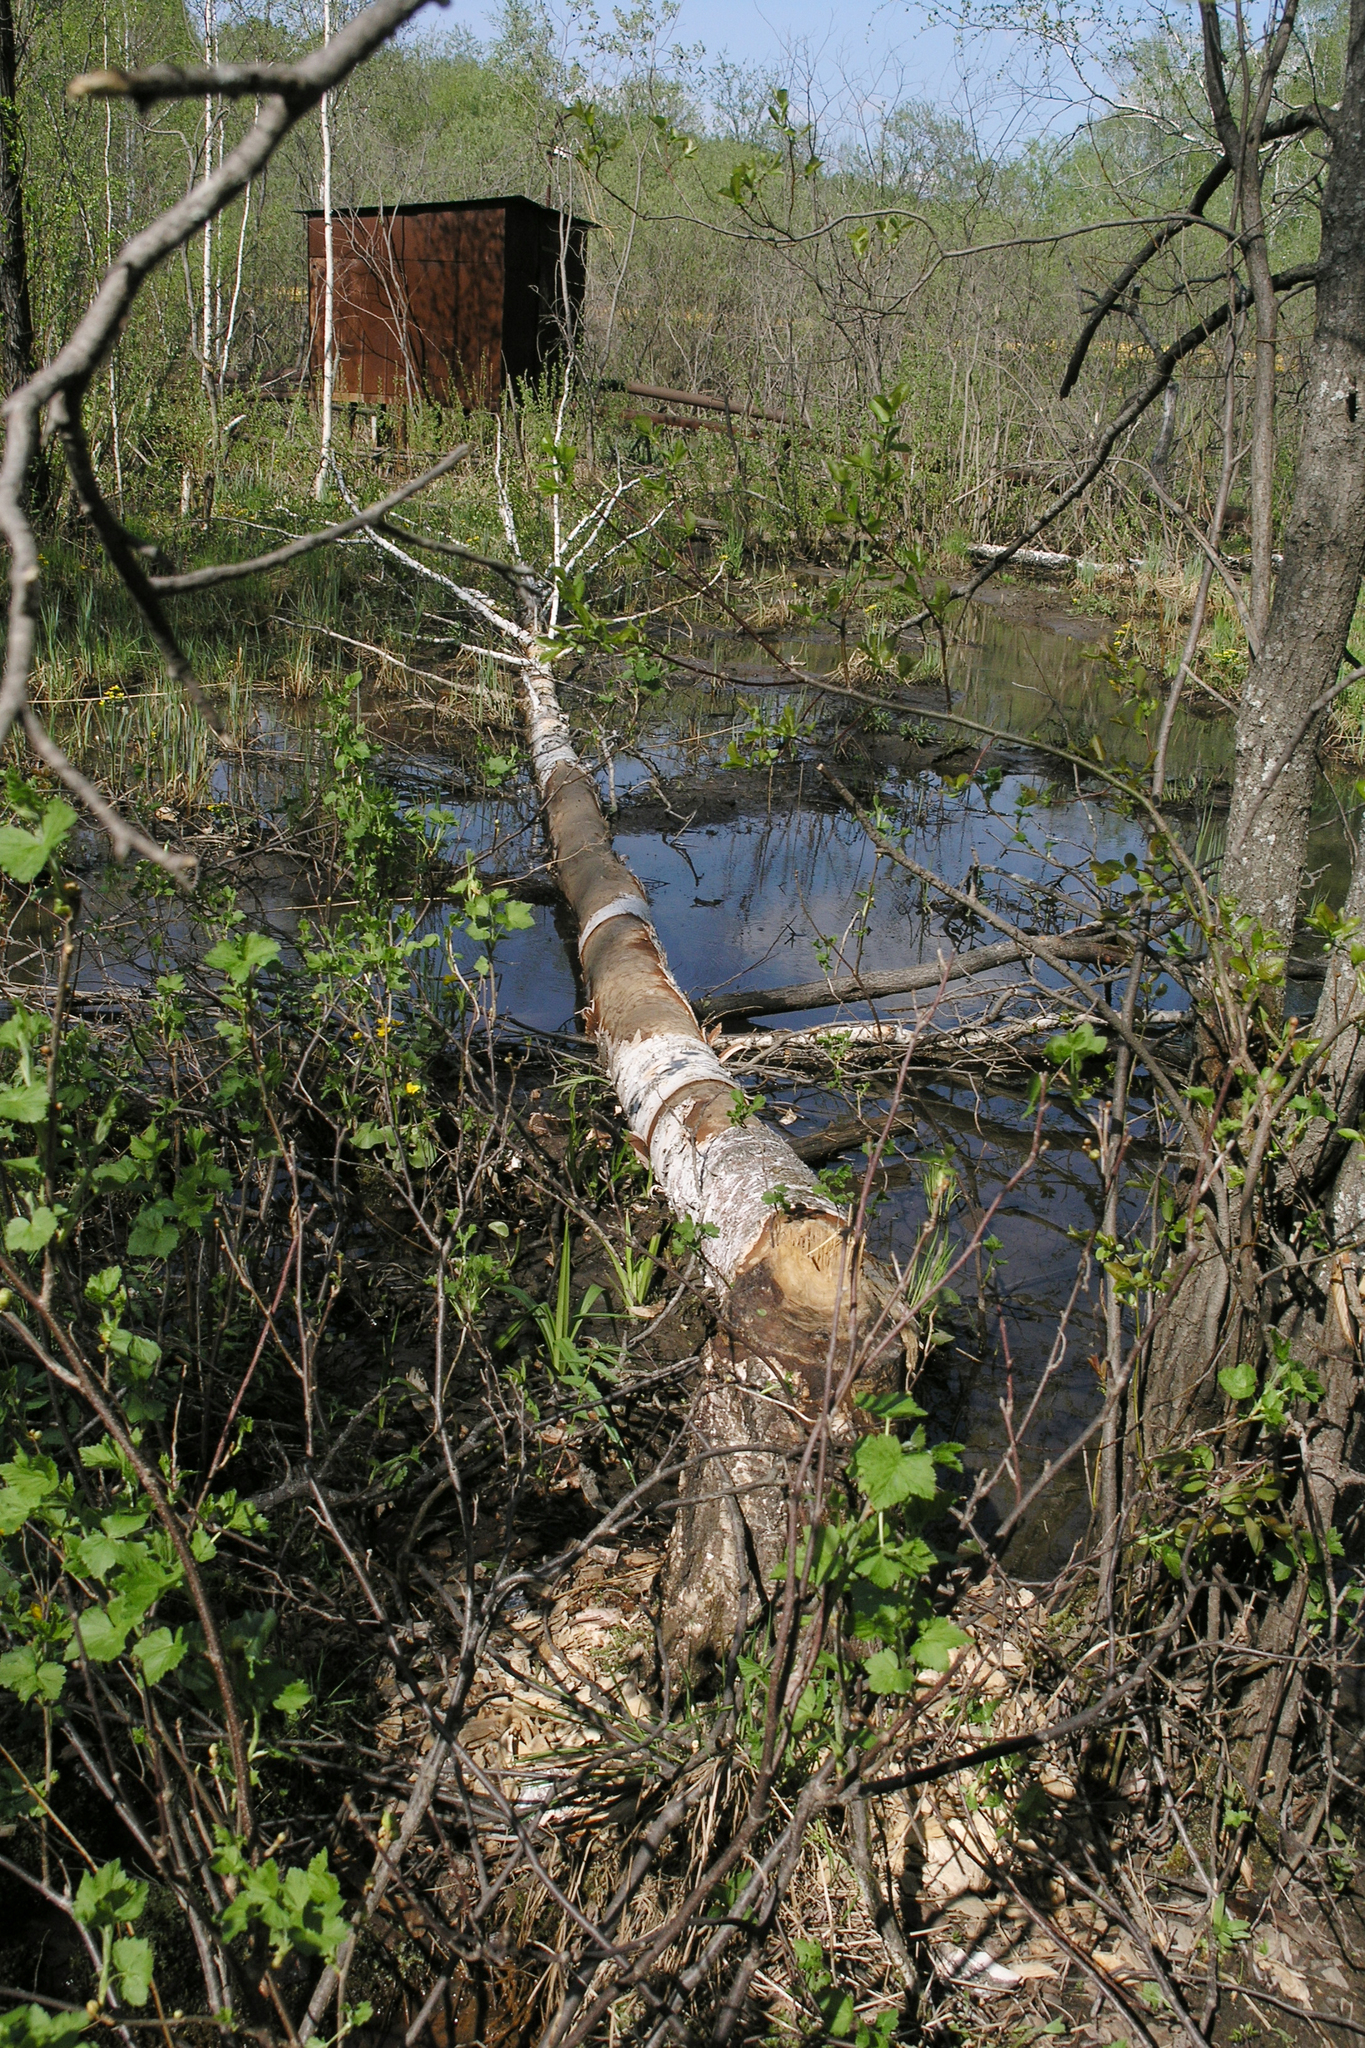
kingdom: Animalia
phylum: Chordata
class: Mammalia
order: Rodentia
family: Castoridae
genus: Castor
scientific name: Castor fiber
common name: Eurasian beaver
